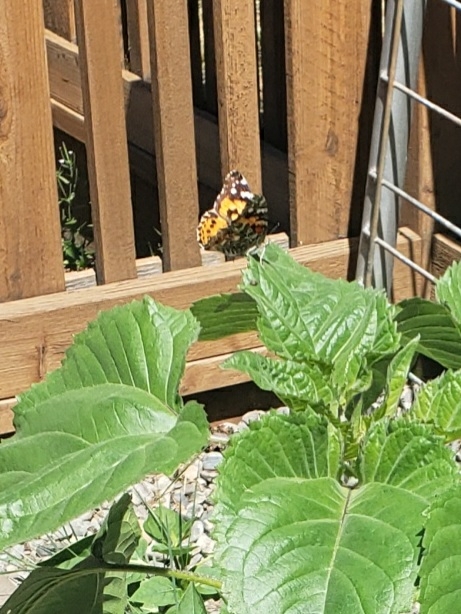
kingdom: Animalia
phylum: Arthropoda
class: Insecta
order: Lepidoptera
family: Nymphalidae
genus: Vanessa
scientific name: Vanessa cardui
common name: Painted lady
